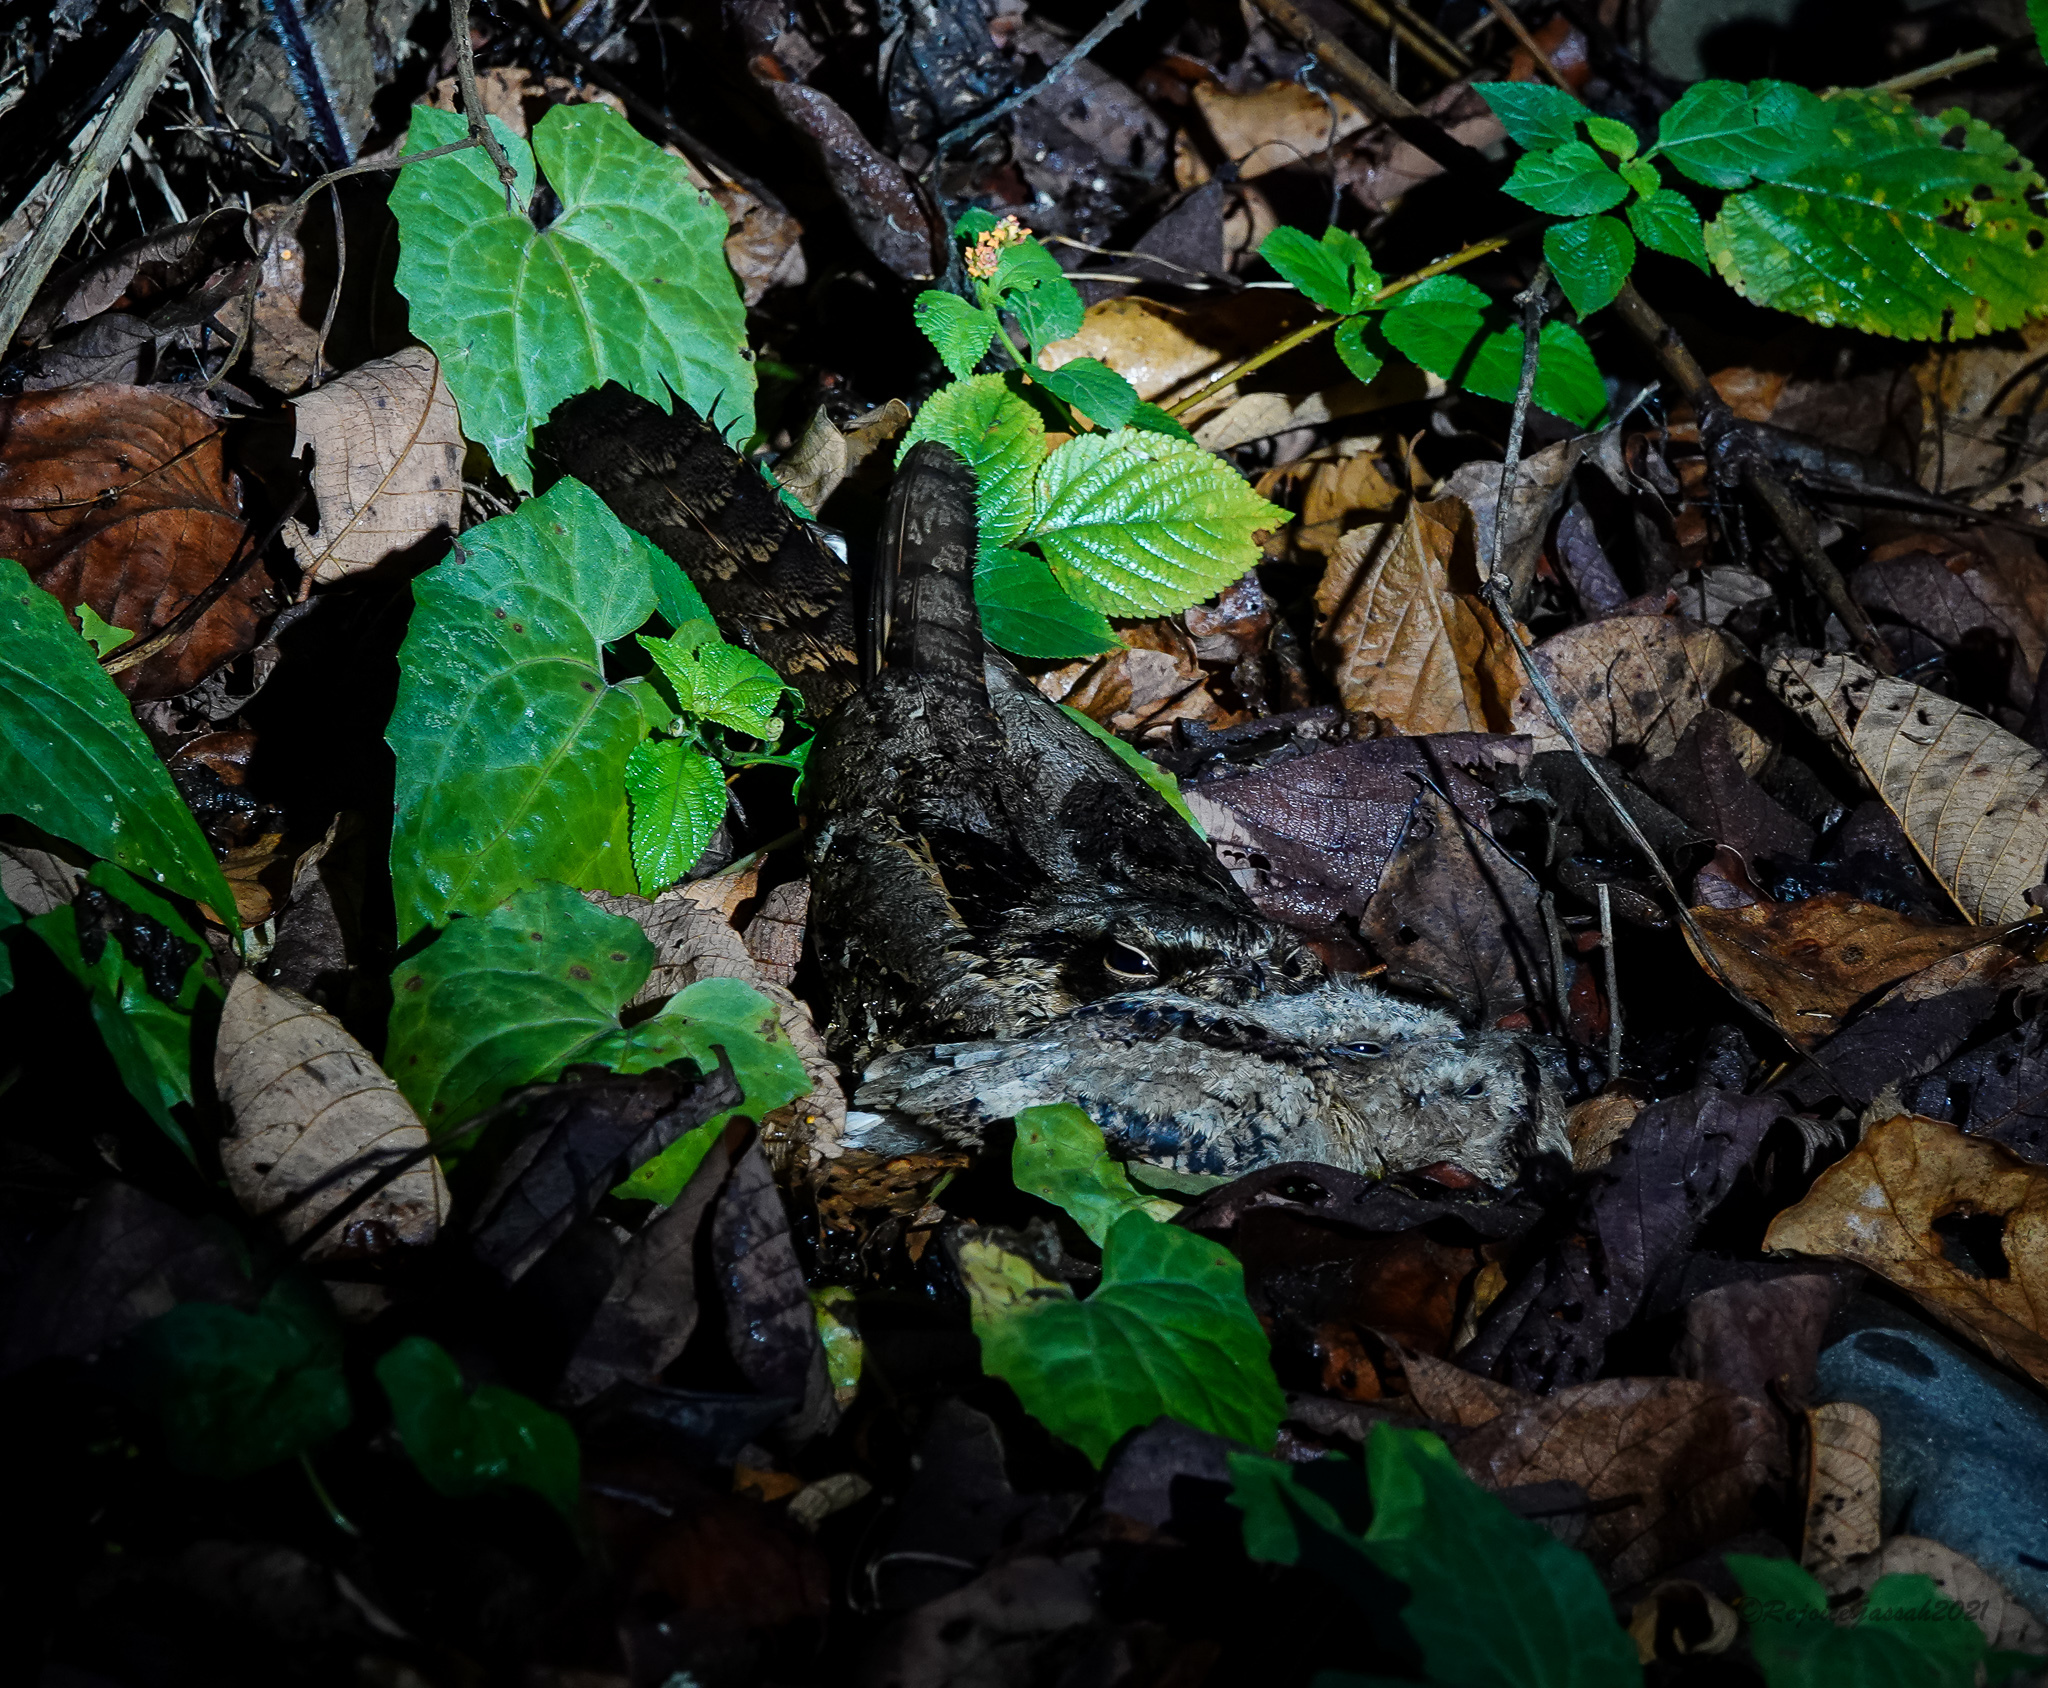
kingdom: Animalia
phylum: Chordata
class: Aves
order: Caprimulgiformes
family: Caprimulgidae
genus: Caprimulgus
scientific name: Caprimulgus macrurus
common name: Large-tailed nightjar
